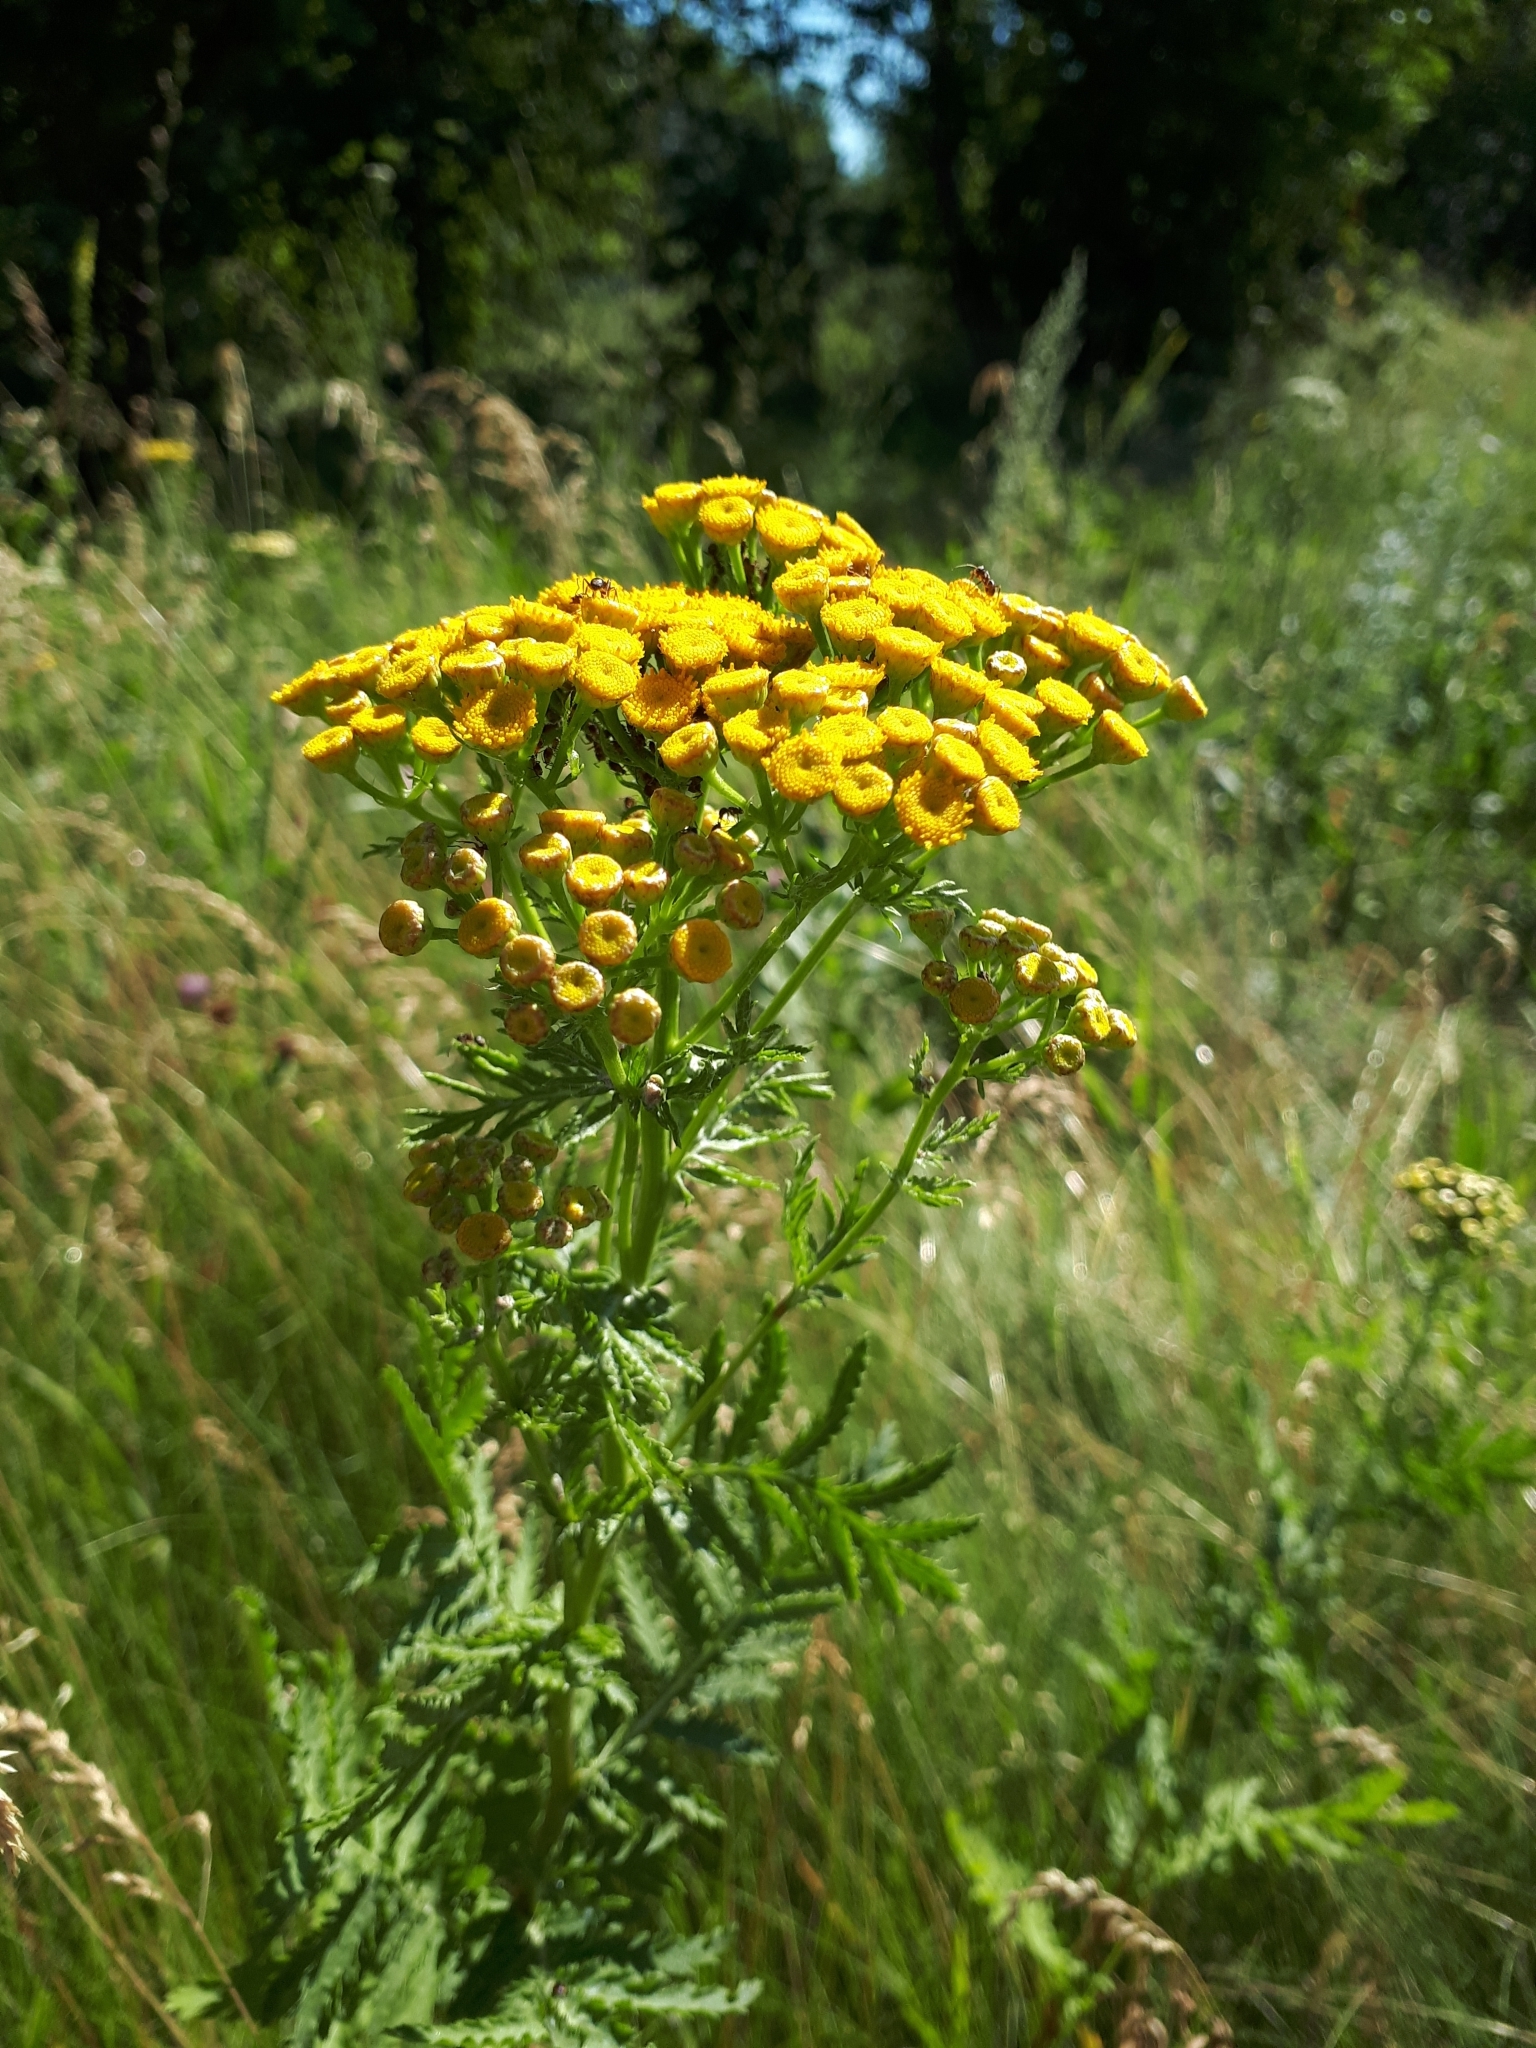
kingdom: Plantae
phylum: Tracheophyta
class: Magnoliopsida
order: Asterales
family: Asteraceae
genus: Tanacetum
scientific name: Tanacetum vulgare
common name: Common tansy
